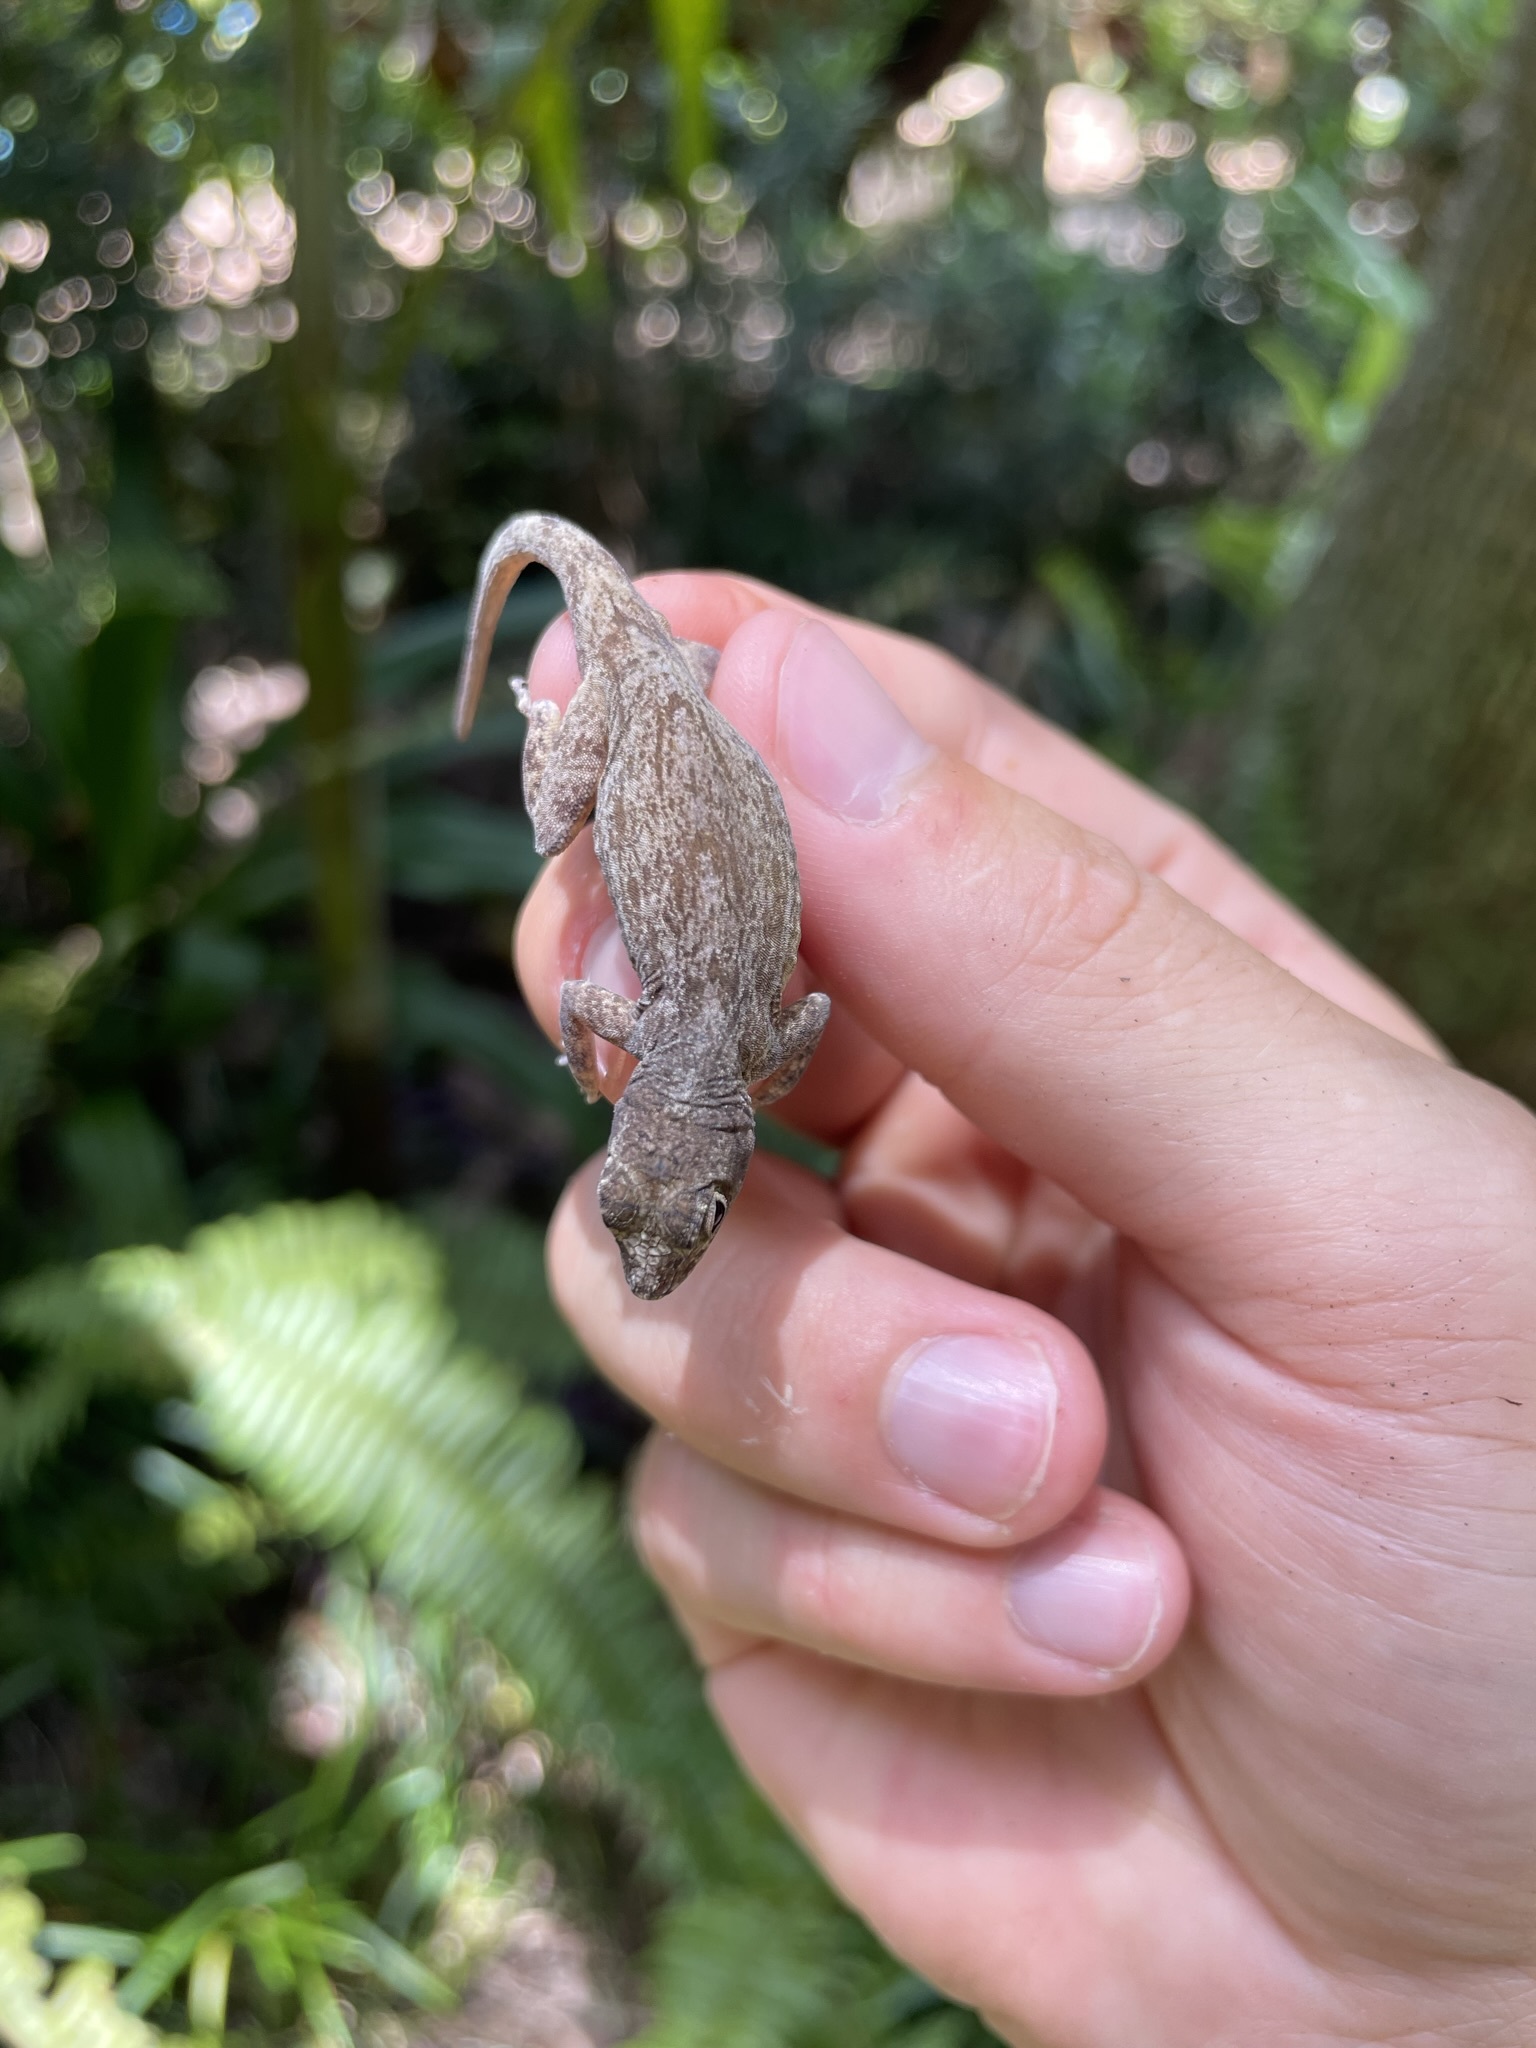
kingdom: Animalia
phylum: Chordata
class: Squamata
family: Dactyloidae
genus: Anolis
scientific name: Anolis distichus
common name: Bark anole
